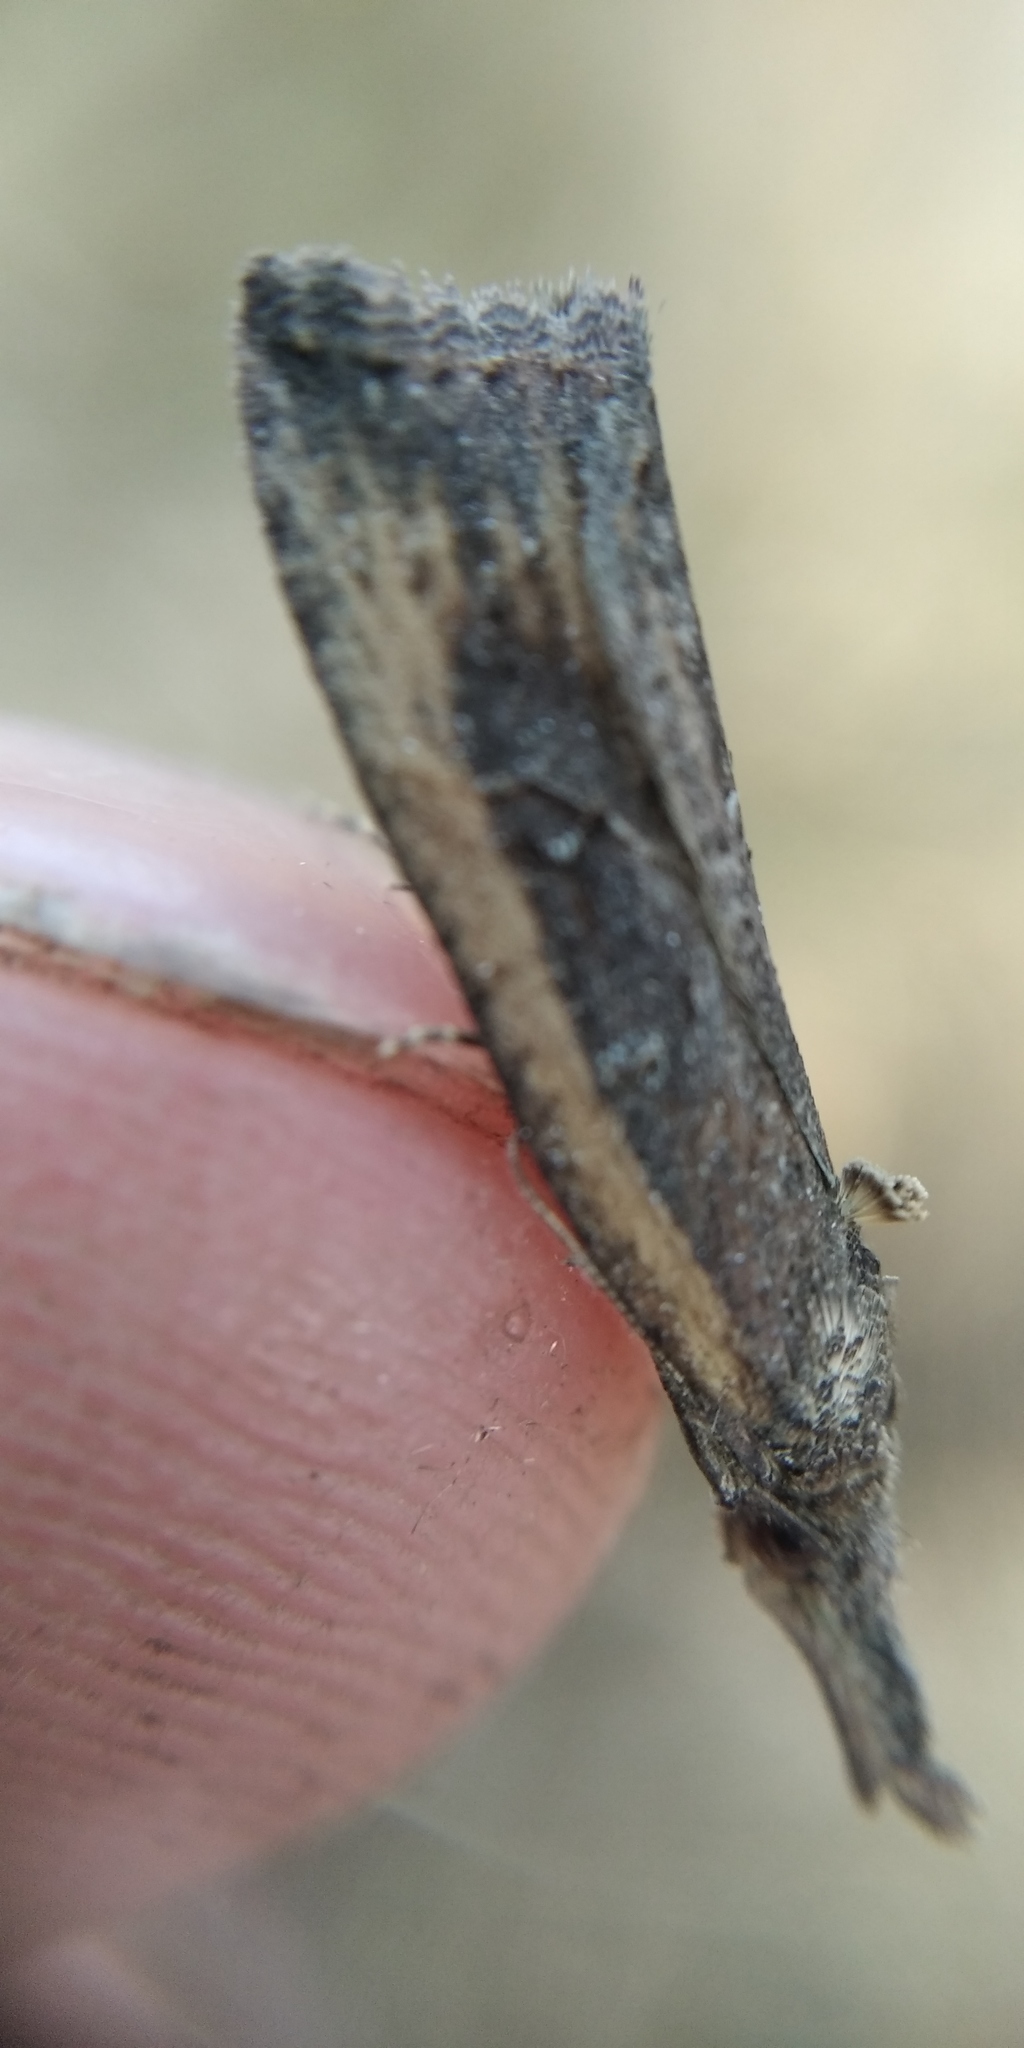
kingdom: Animalia
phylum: Arthropoda
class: Insecta
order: Lepidoptera
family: Erebidae
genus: Hypena
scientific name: Hypena rostralis
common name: Buttoned snout
